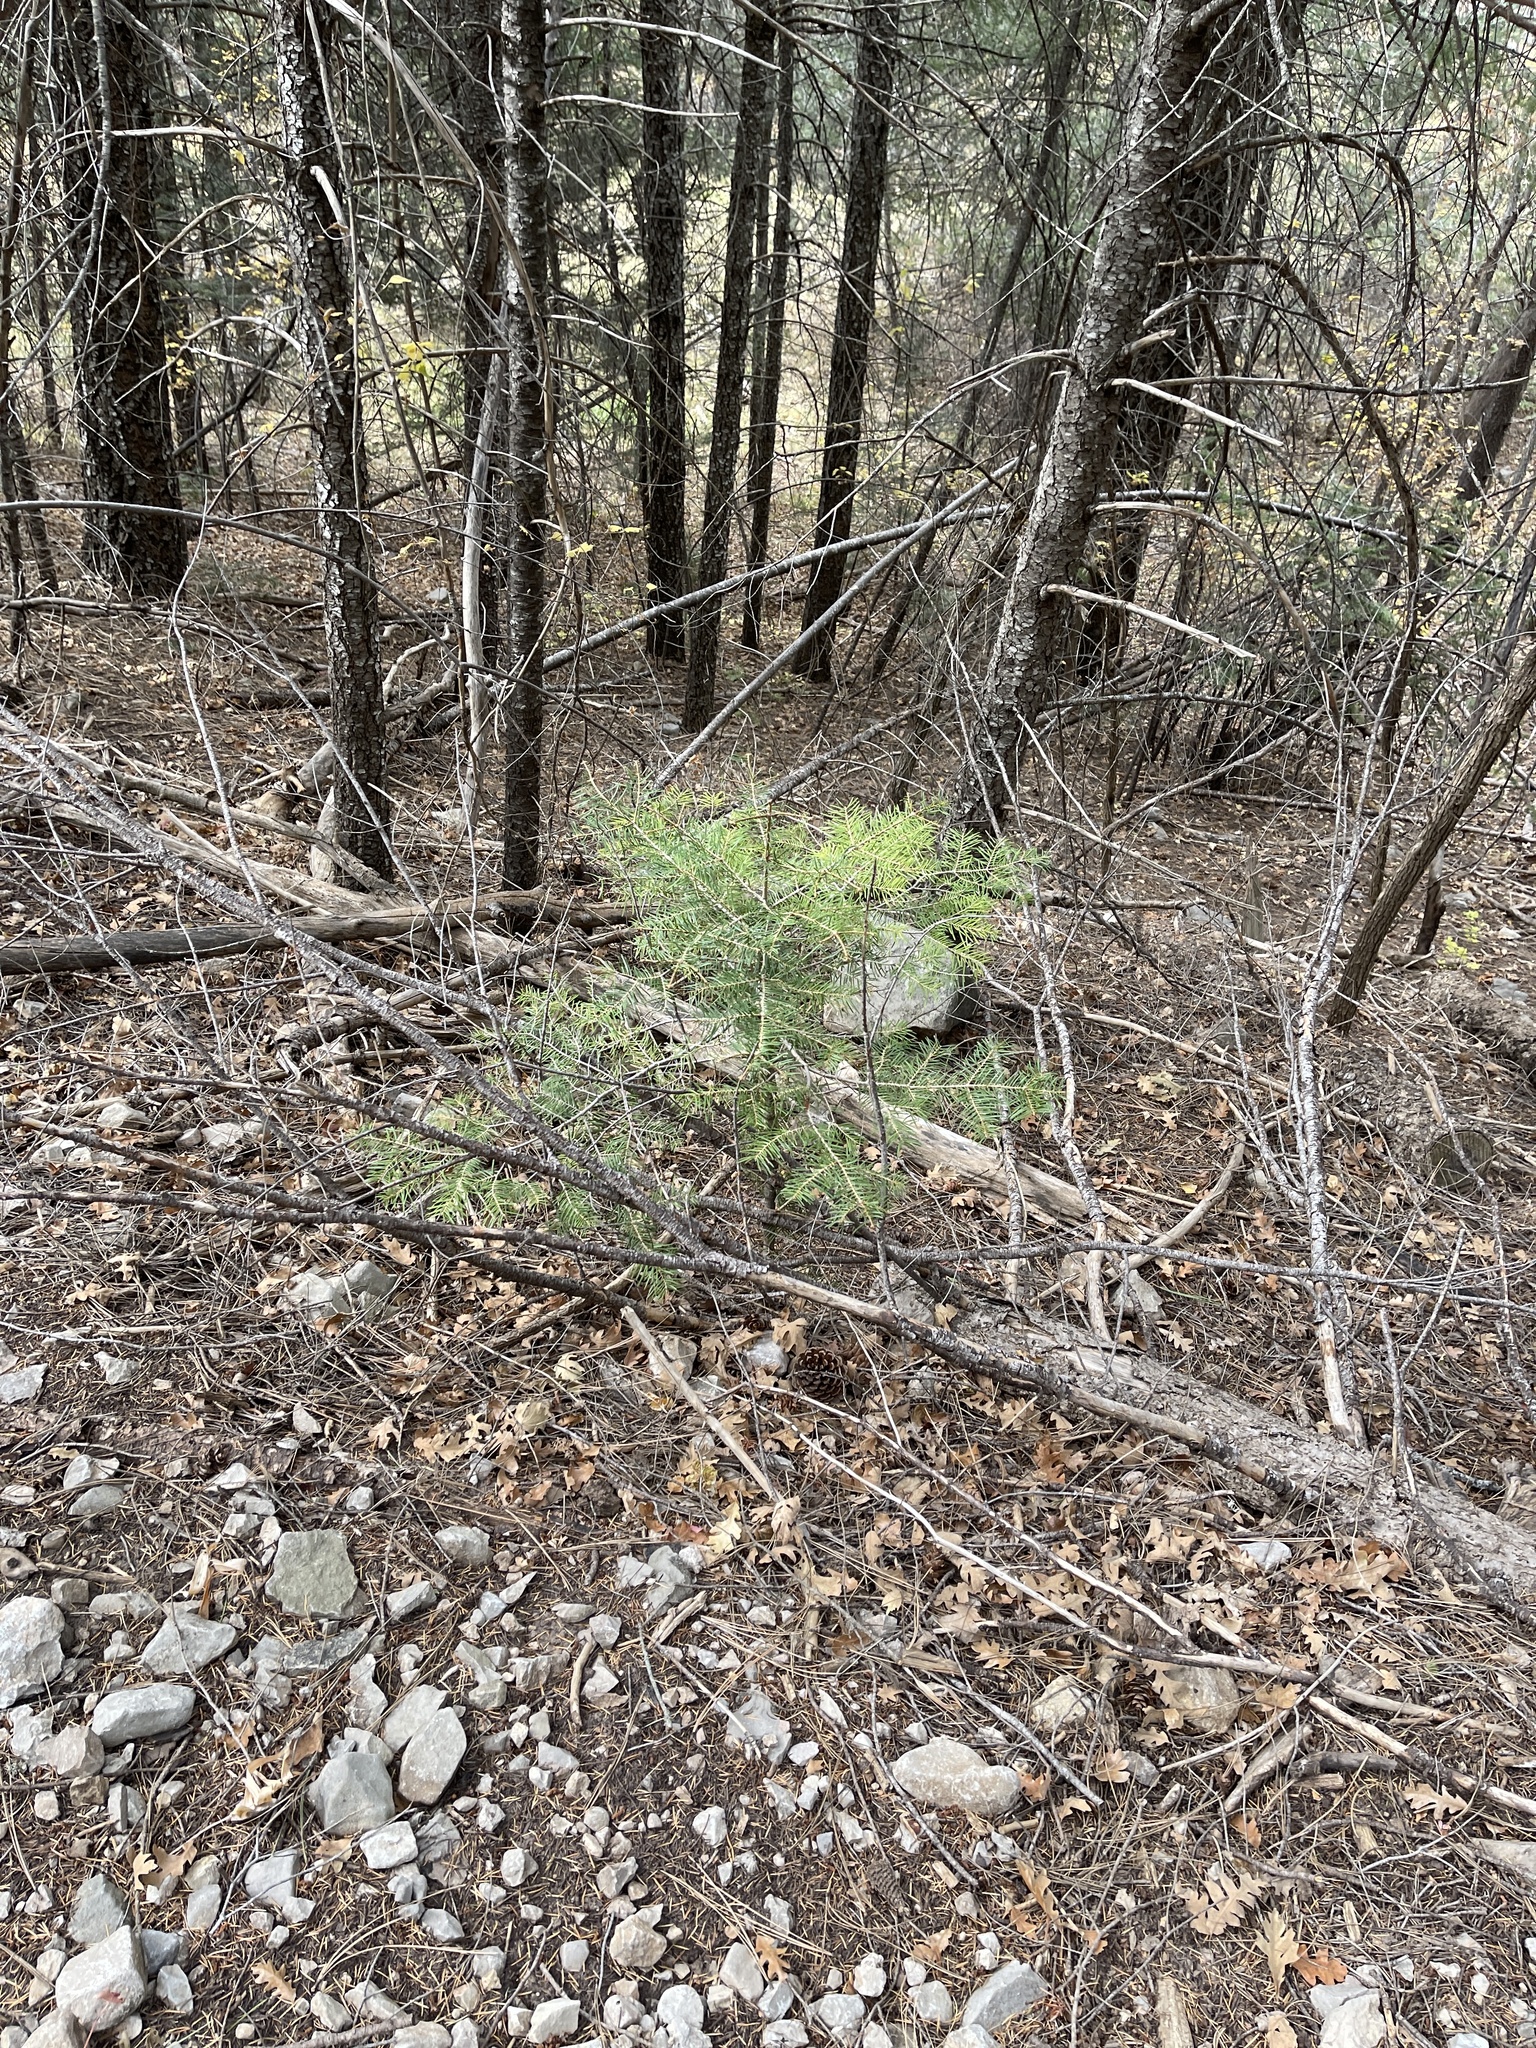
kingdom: Plantae
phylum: Tracheophyta
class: Pinopsida
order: Pinales
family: Pinaceae
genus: Abies
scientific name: Abies concolor
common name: Colorado fir
